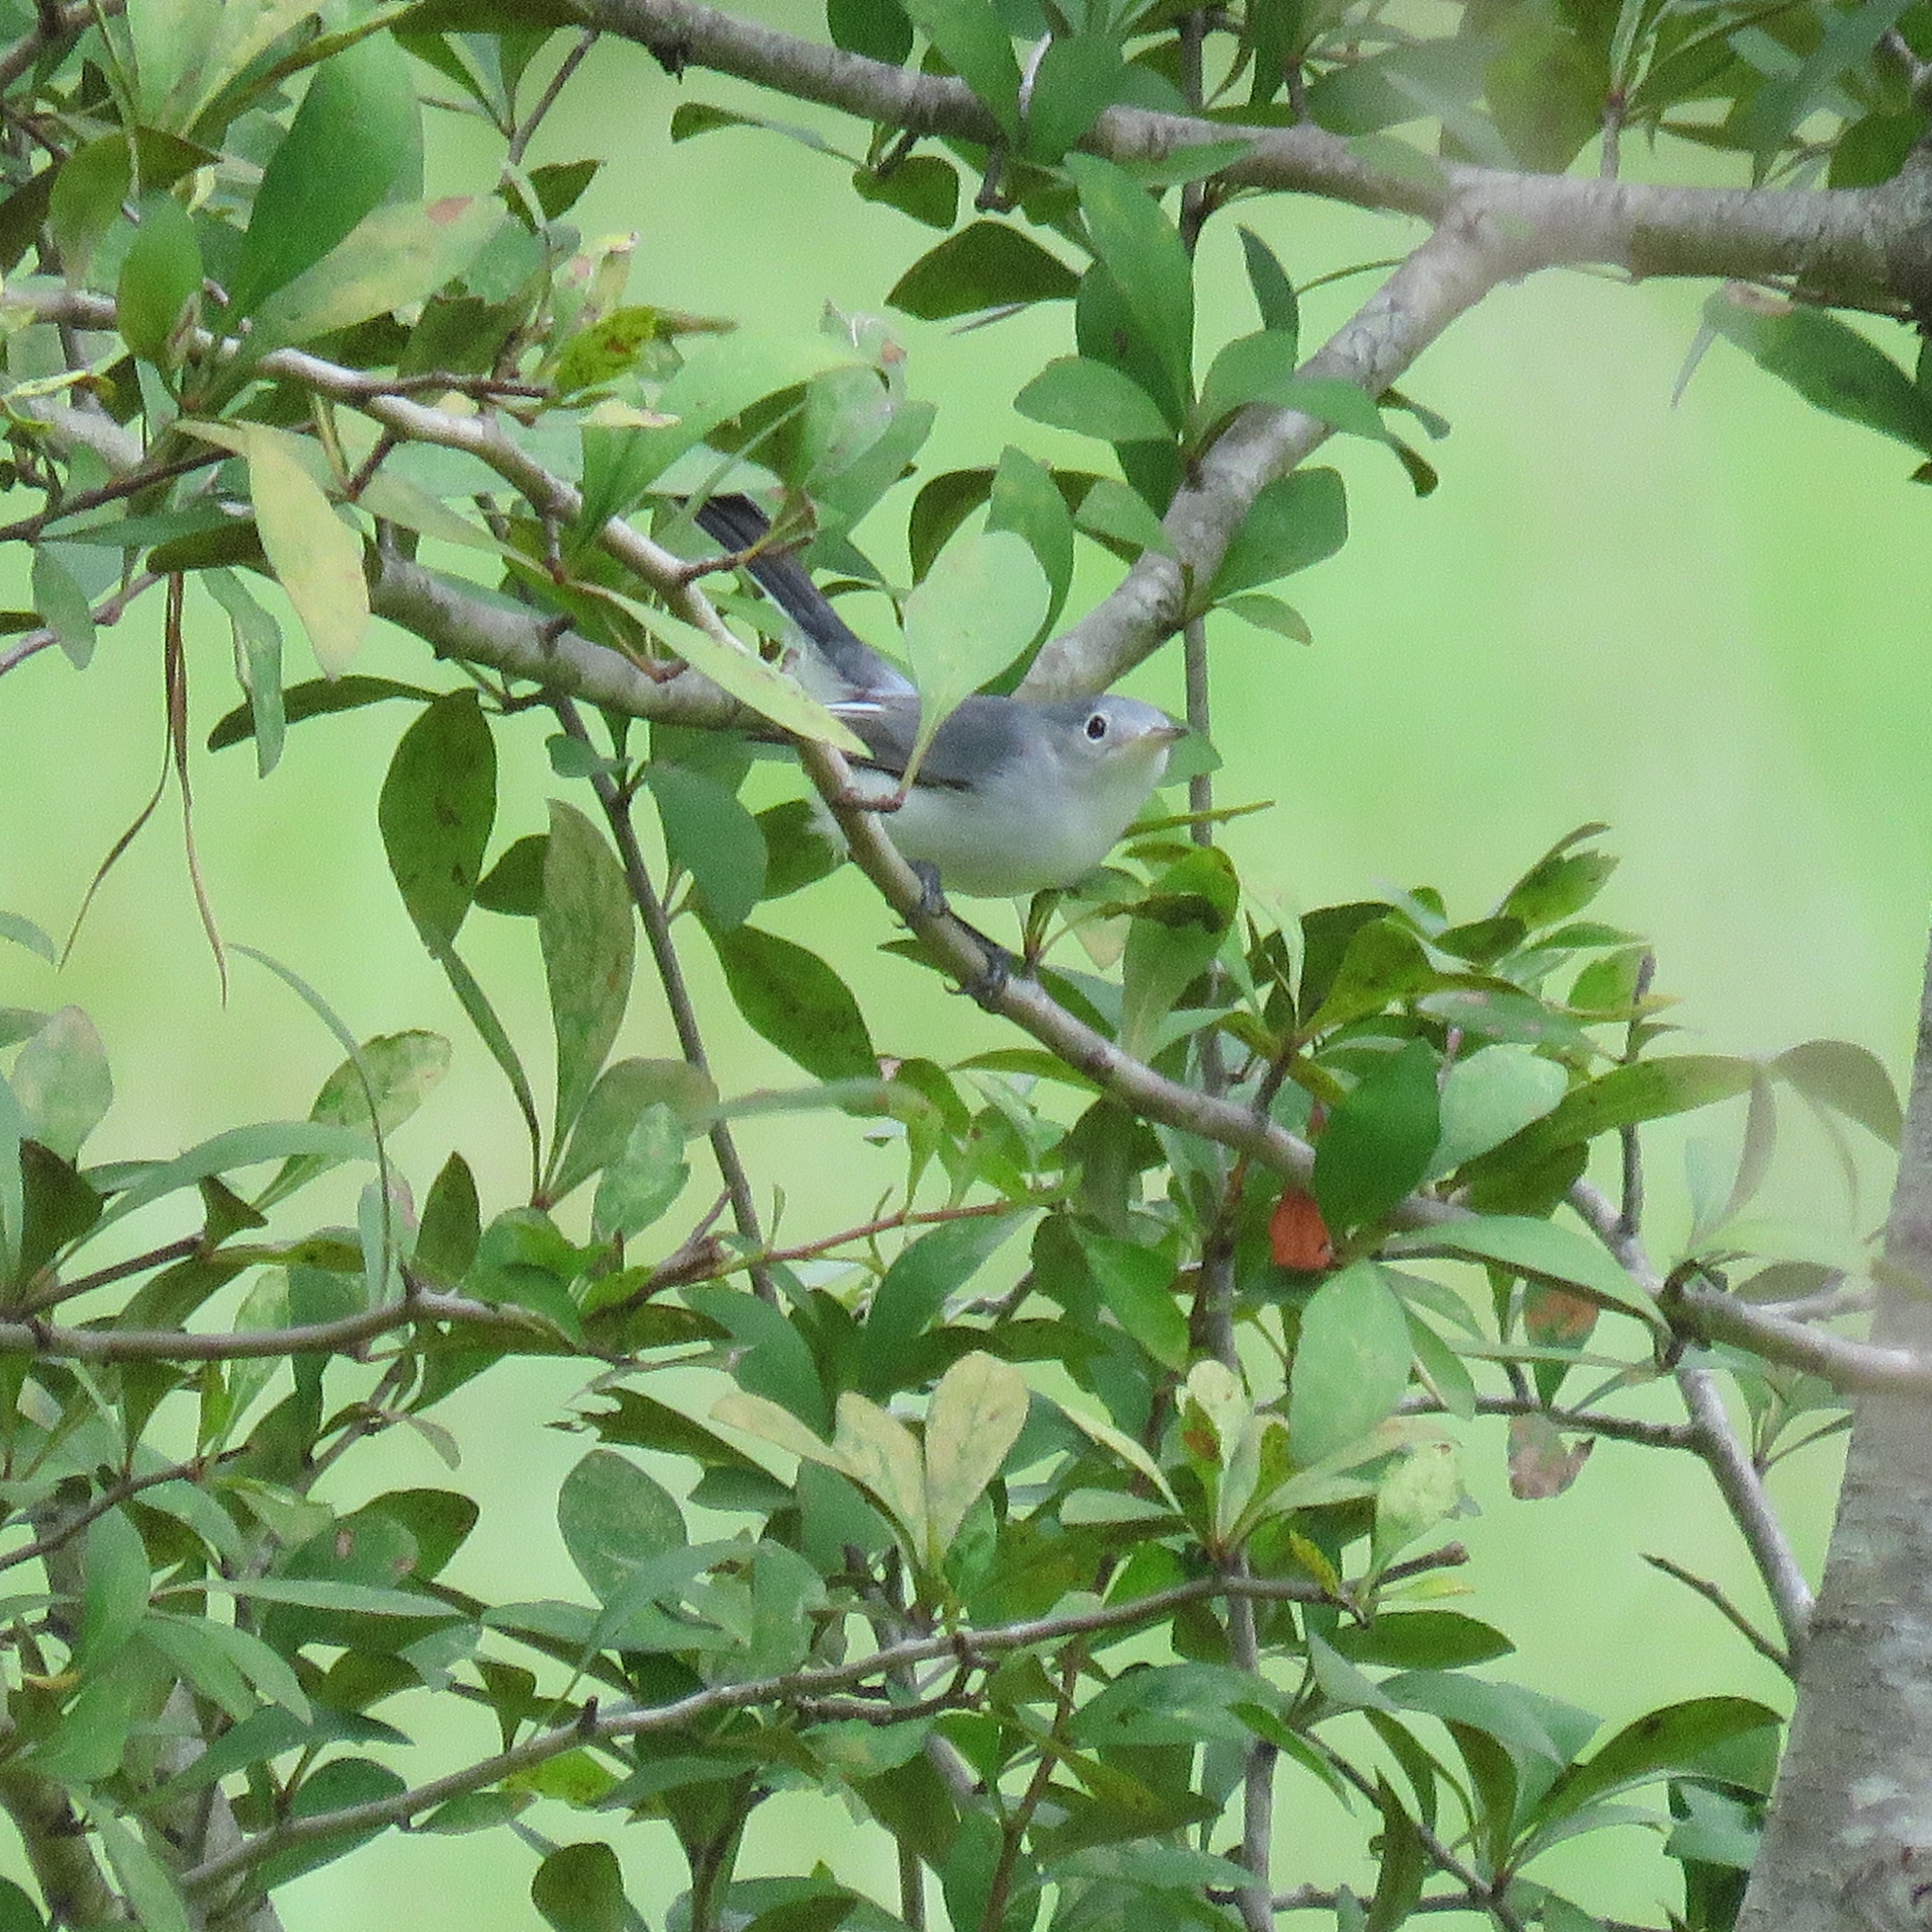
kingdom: Animalia
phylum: Chordata
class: Aves
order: Passeriformes
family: Polioptilidae
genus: Polioptila
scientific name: Polioptila caerulea
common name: Blue-gray gnatcatcher
